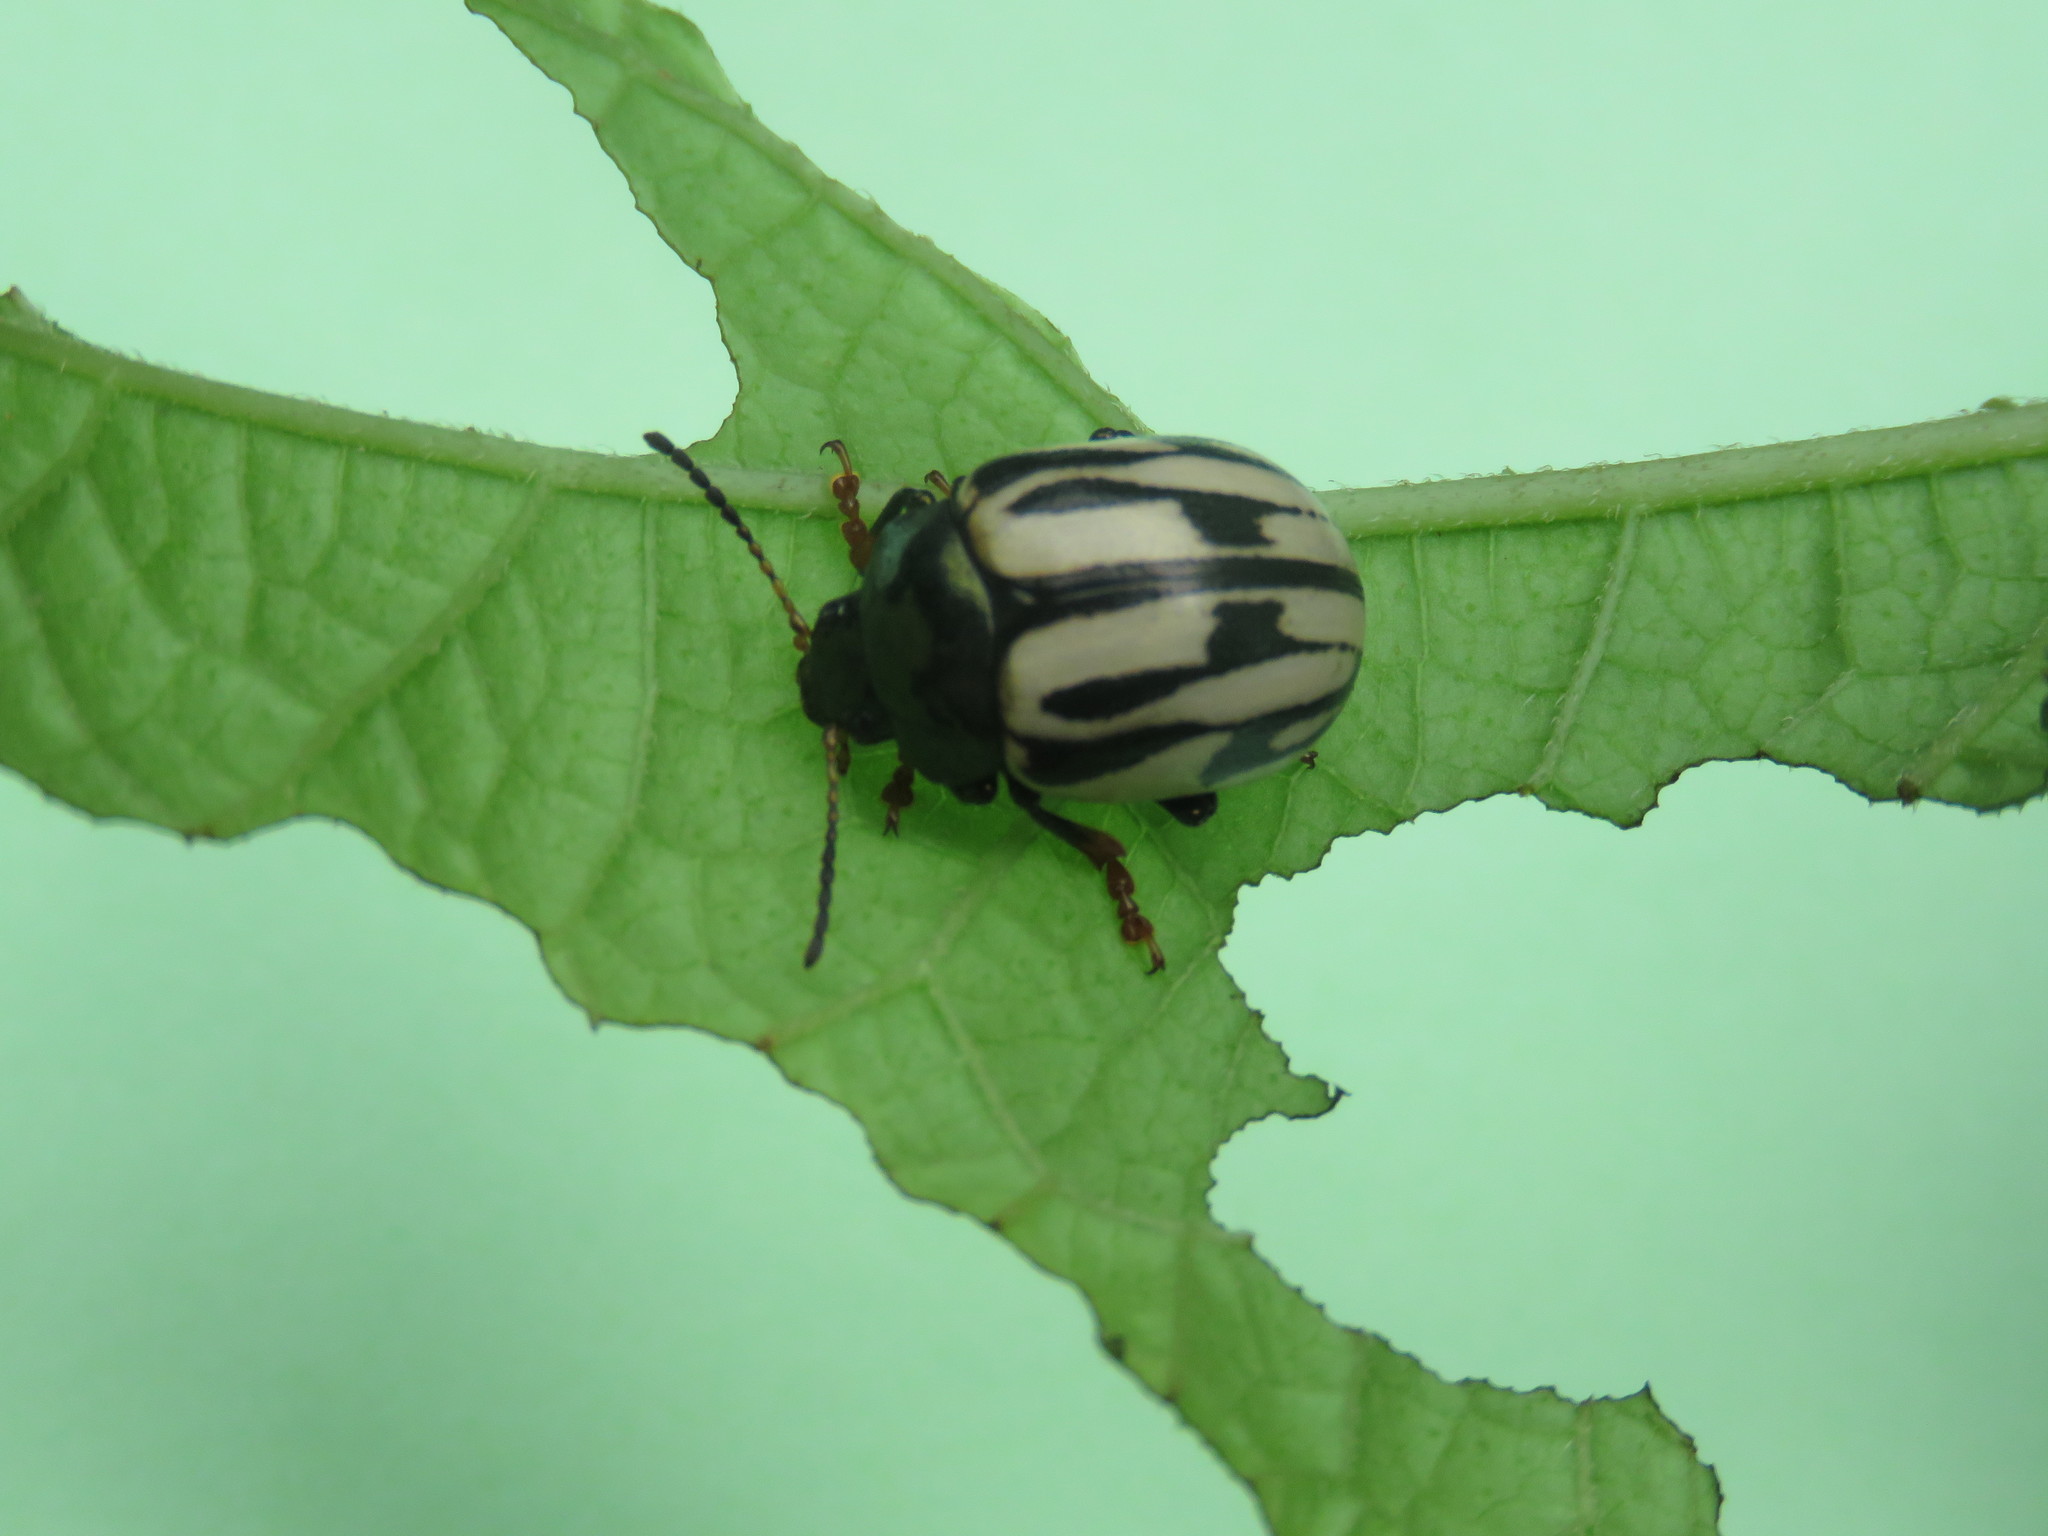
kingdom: Animalia
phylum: Arthropoda
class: Insecta
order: Coleoptera
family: Chrysomelidae
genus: Leptinotarsa
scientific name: Leptinotarsa
